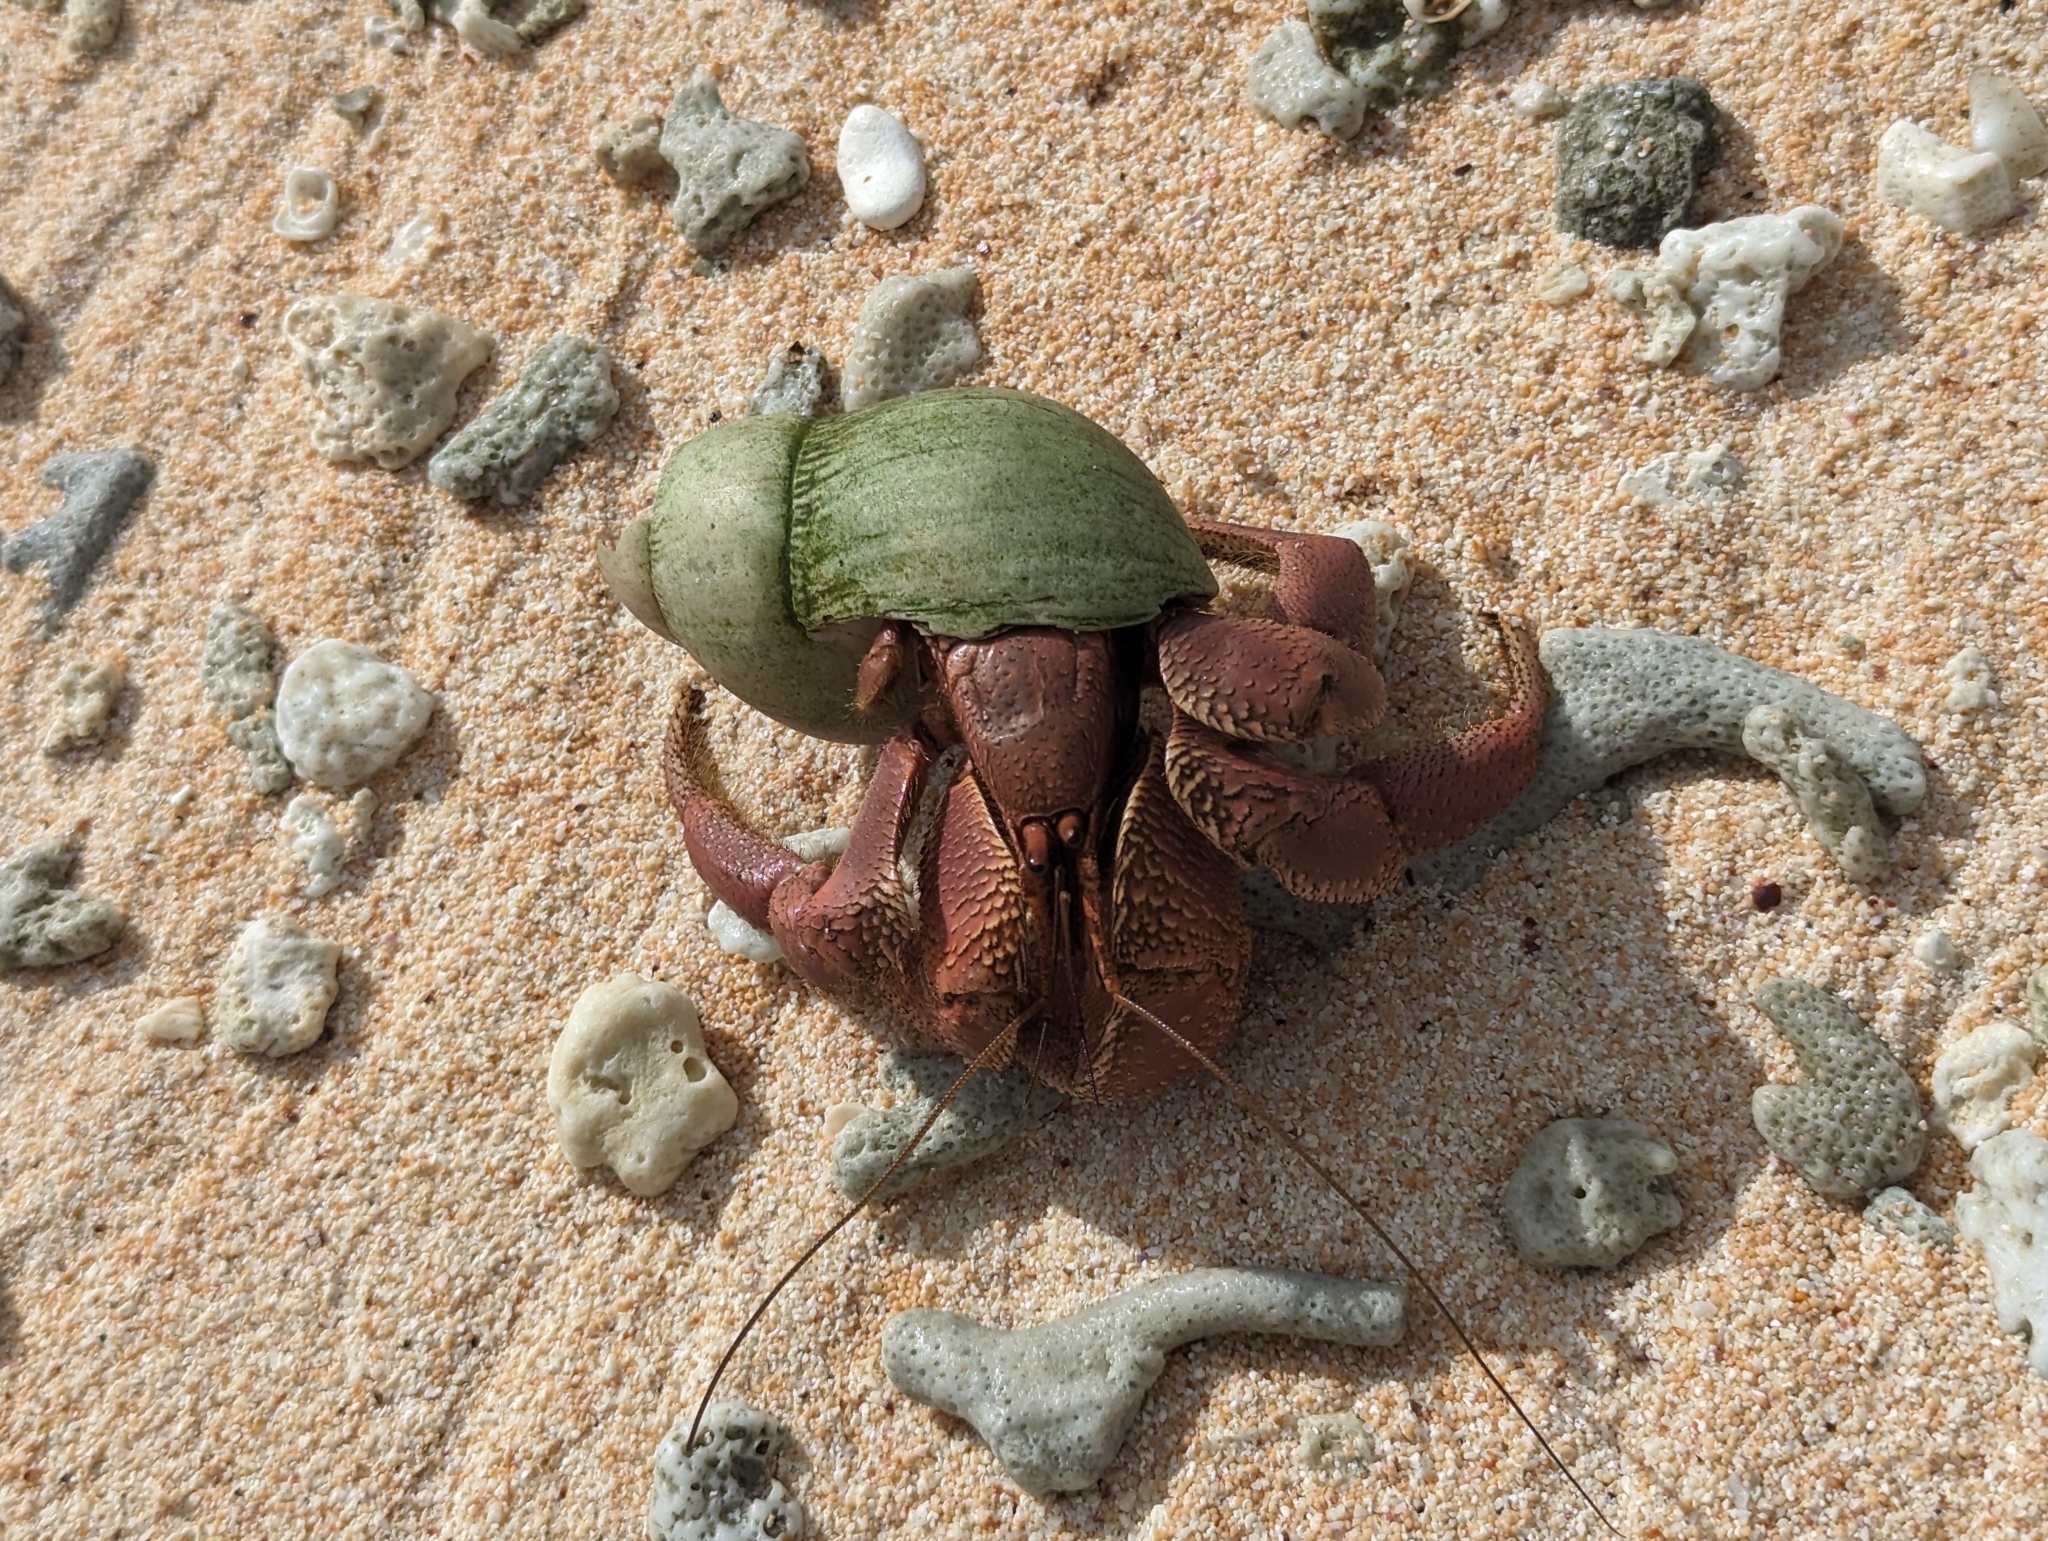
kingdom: Animalia
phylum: Arthropoda
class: Malacostraca
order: Decapoda
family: Coenobitidae
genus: Coenobita
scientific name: Coenobita brevimanus
